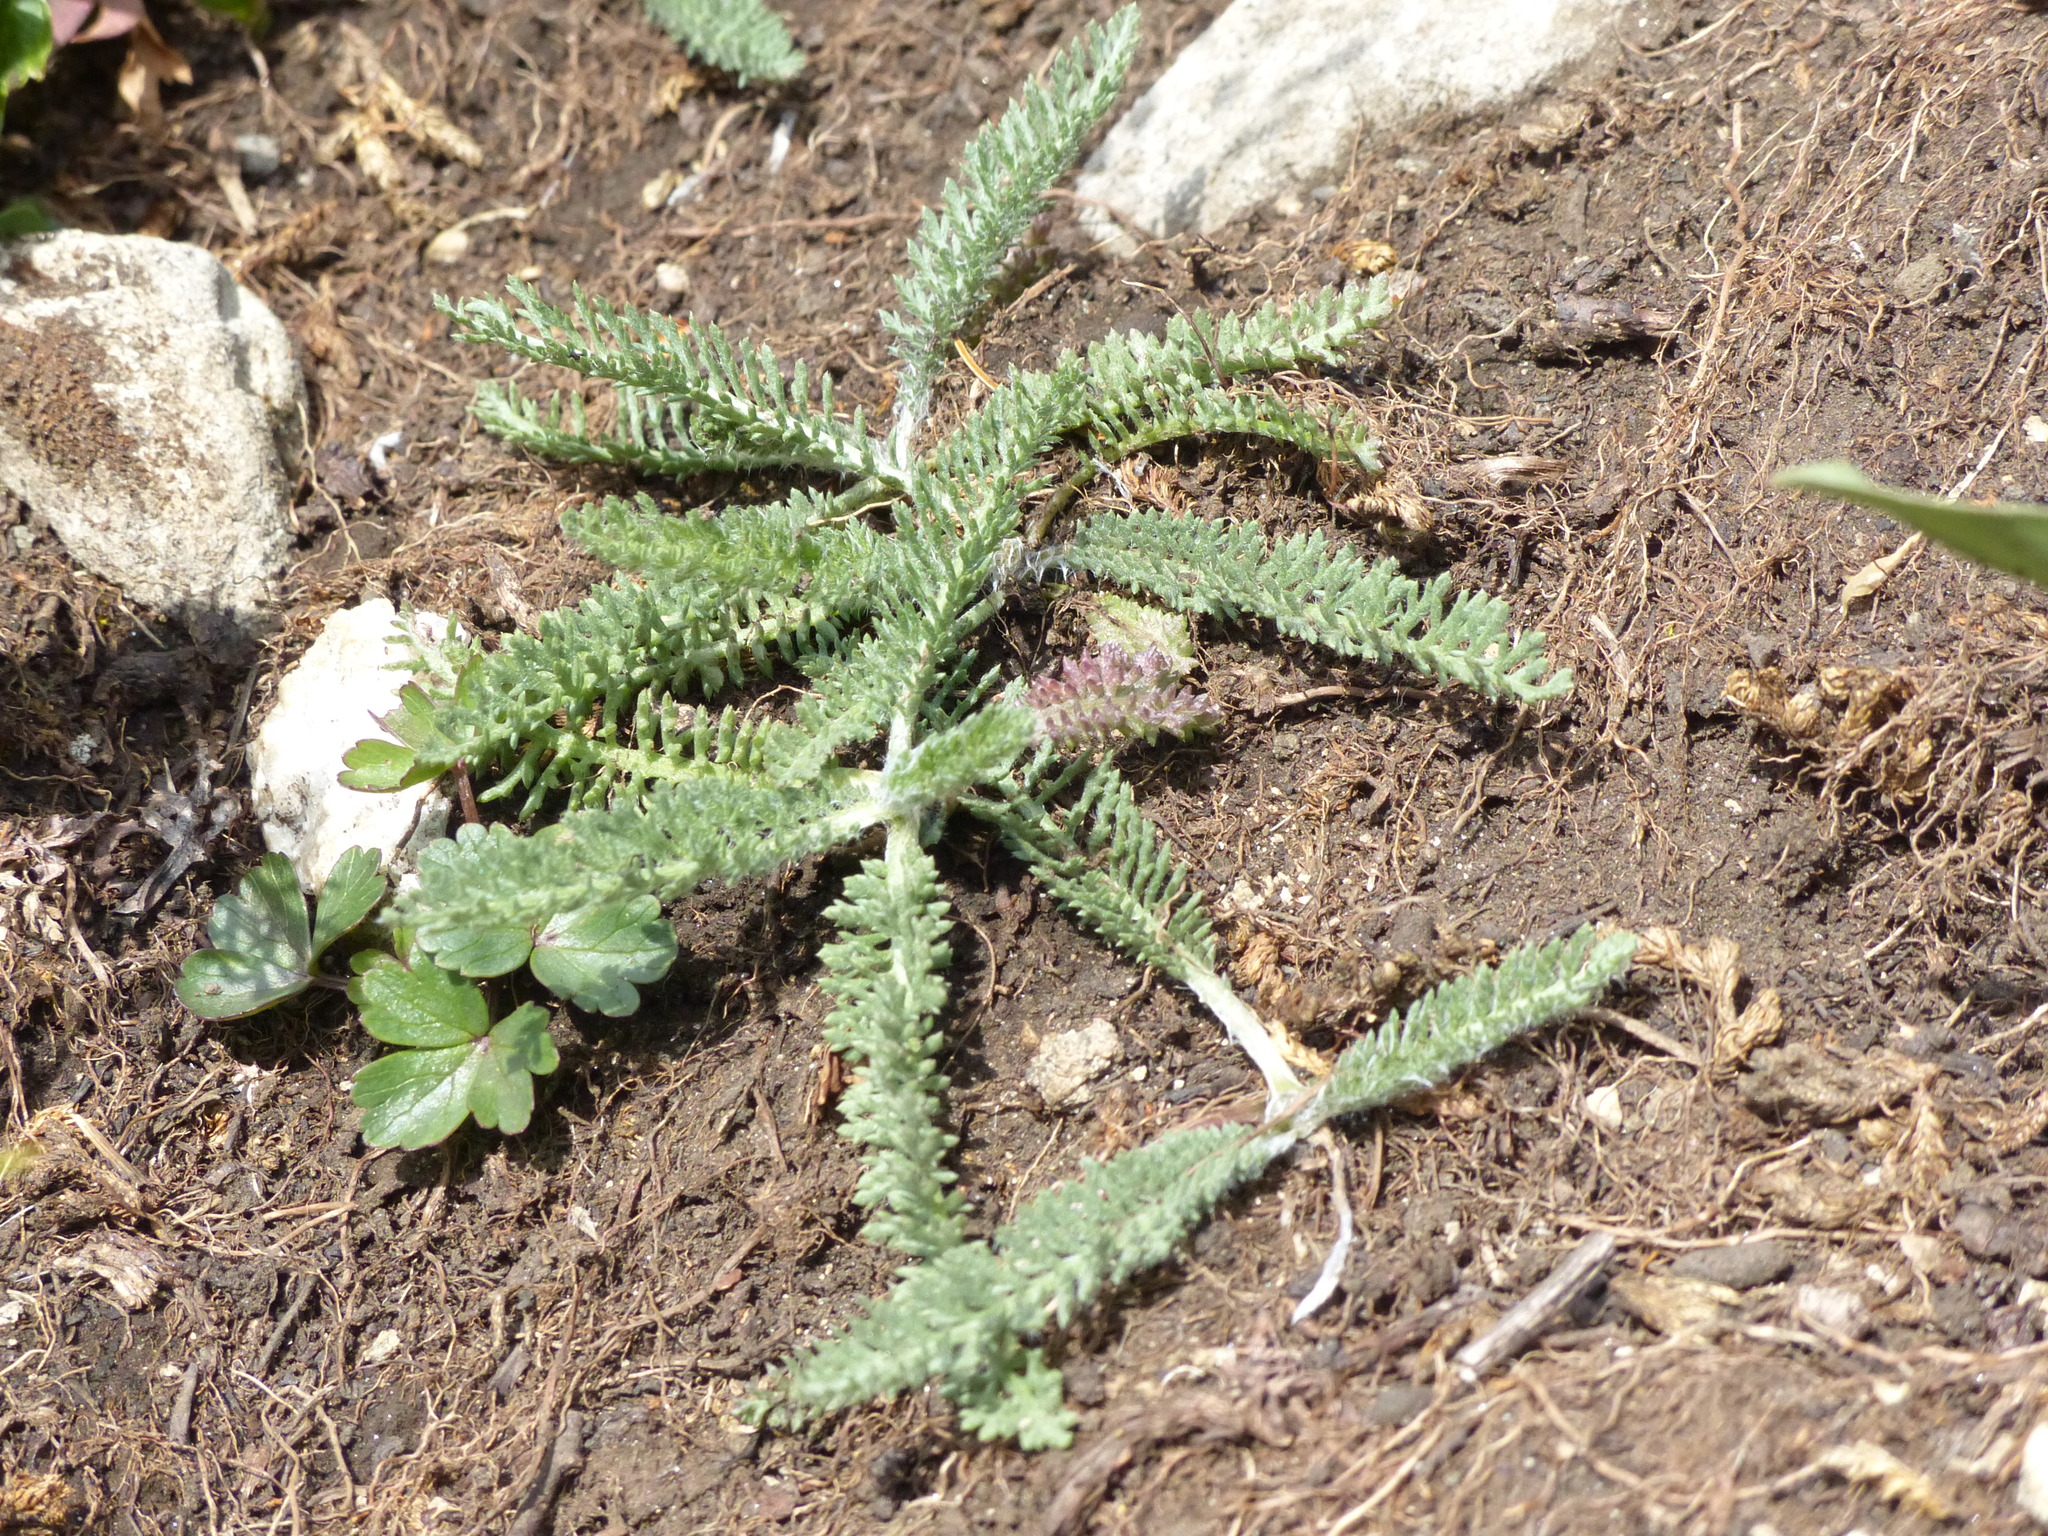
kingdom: Plantae
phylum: Tracheophyta
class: Magnoliopsida
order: Asterales
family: Asteraceae
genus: Achillea
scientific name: Achillea millefolium
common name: Yarrow
